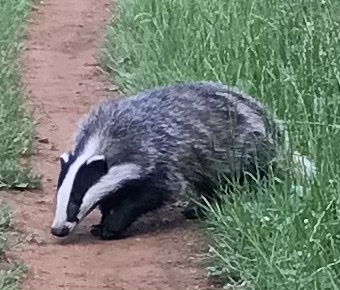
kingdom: Animalia
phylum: Chordata
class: Mammalia
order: Carnivora
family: Mustelidae
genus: Meles
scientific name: Meles meles
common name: Eurasian badger
